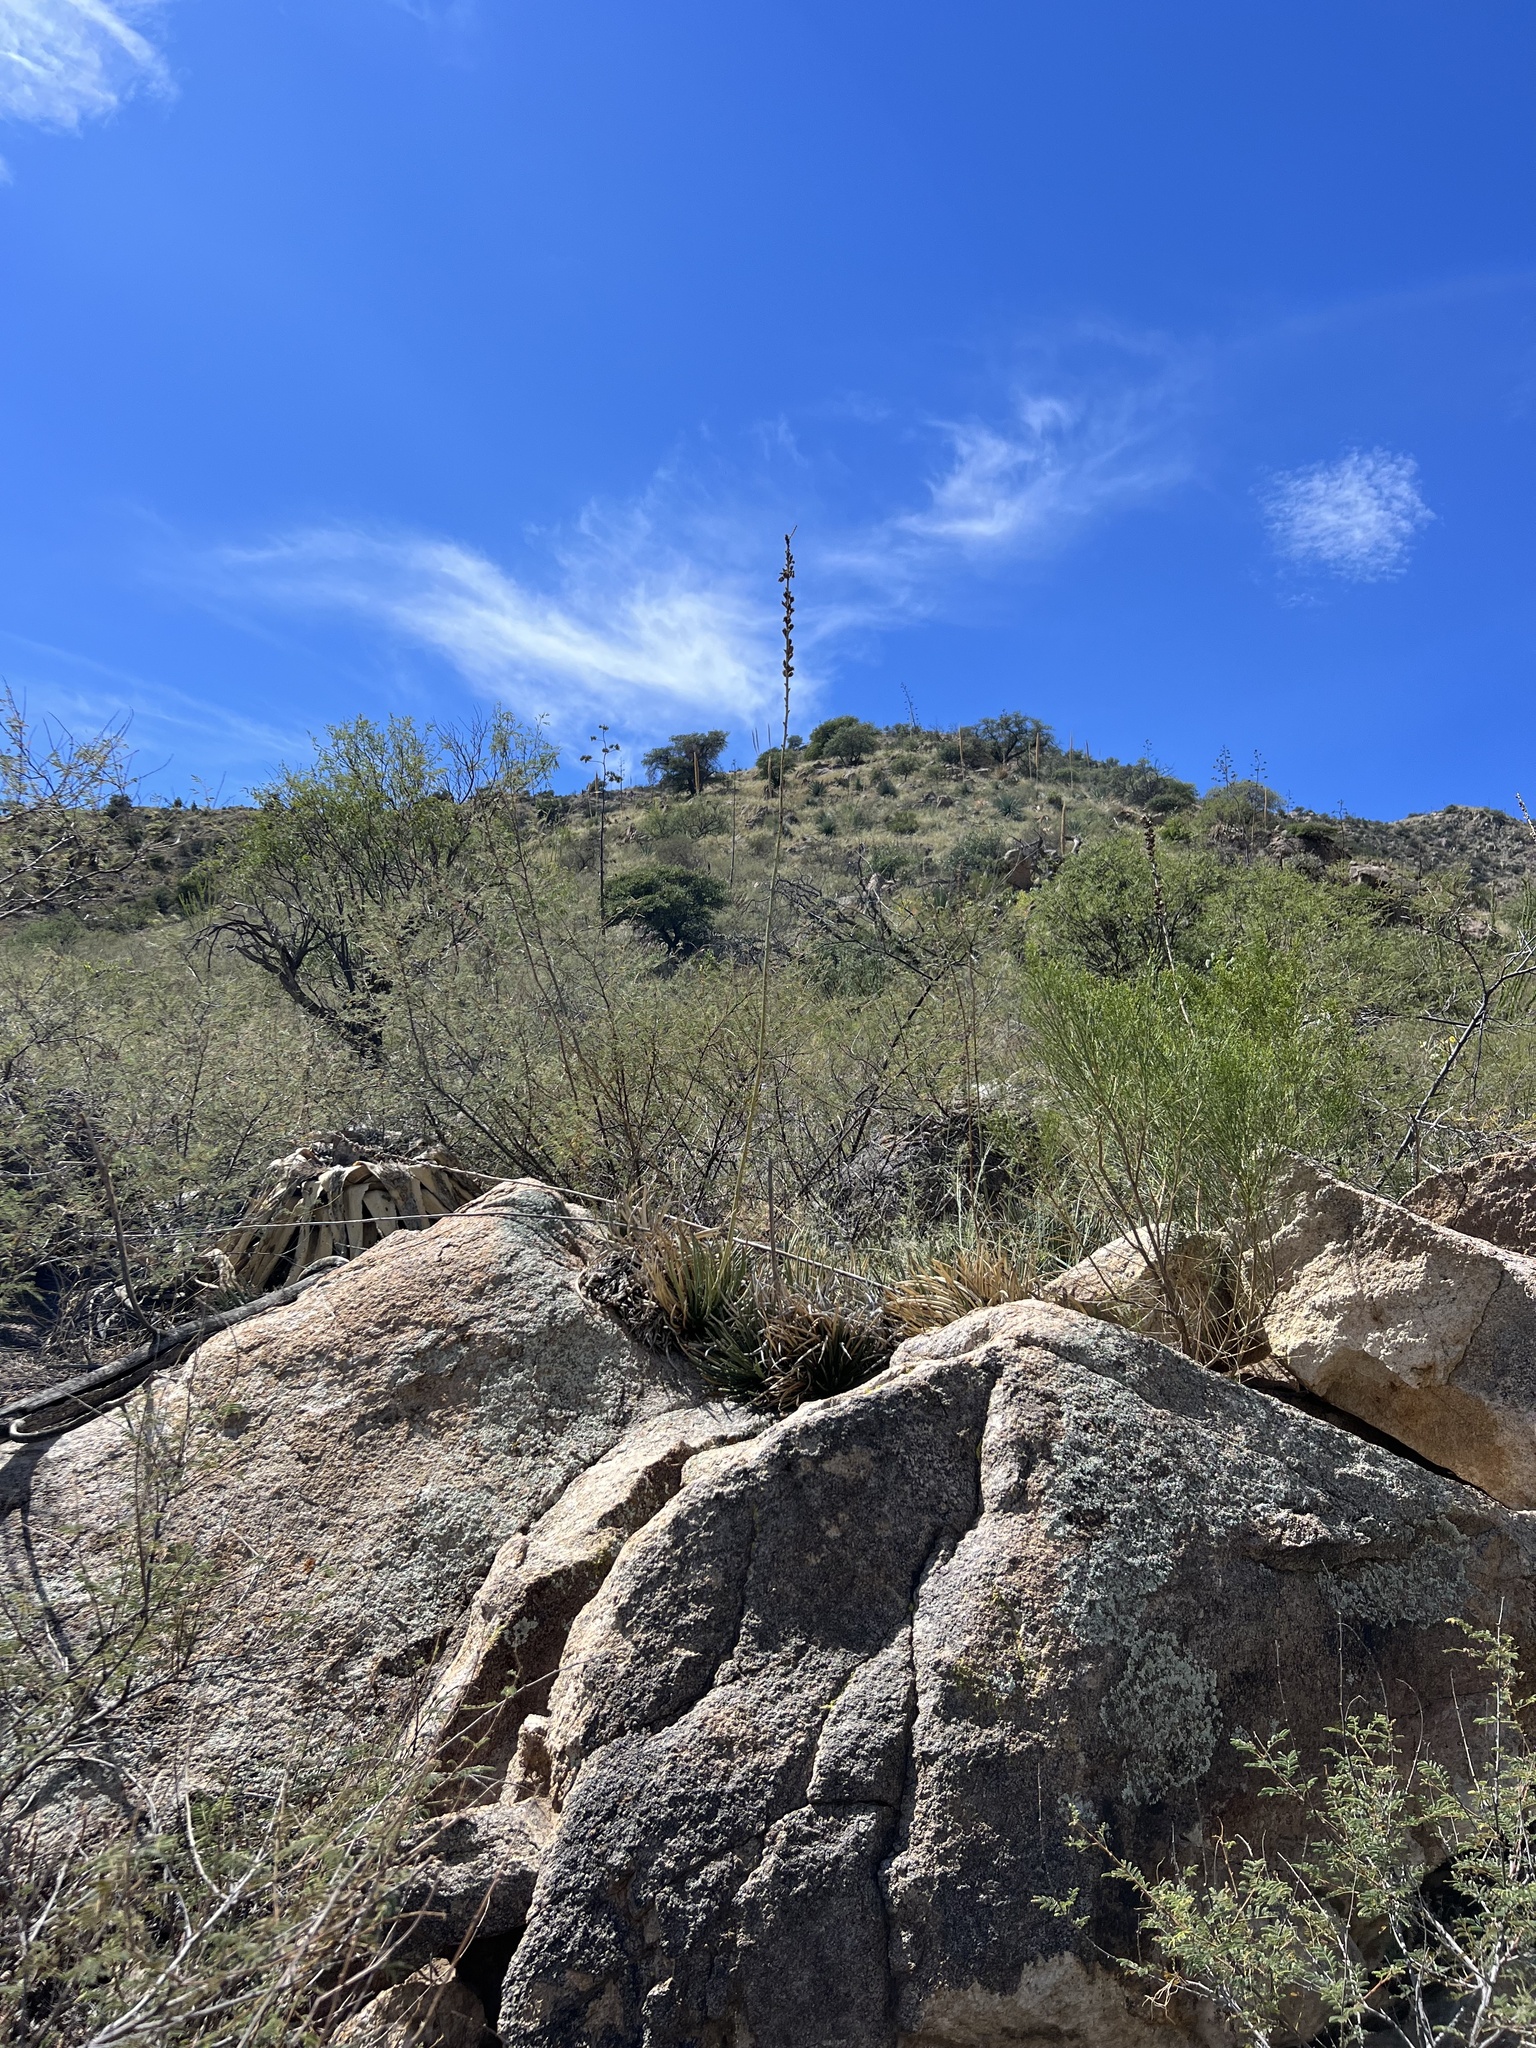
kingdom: Plantae
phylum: Tracheophyta
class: Liliopsida
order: Asparagales
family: Asparagaceae
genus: Agave
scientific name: Agave schottii
